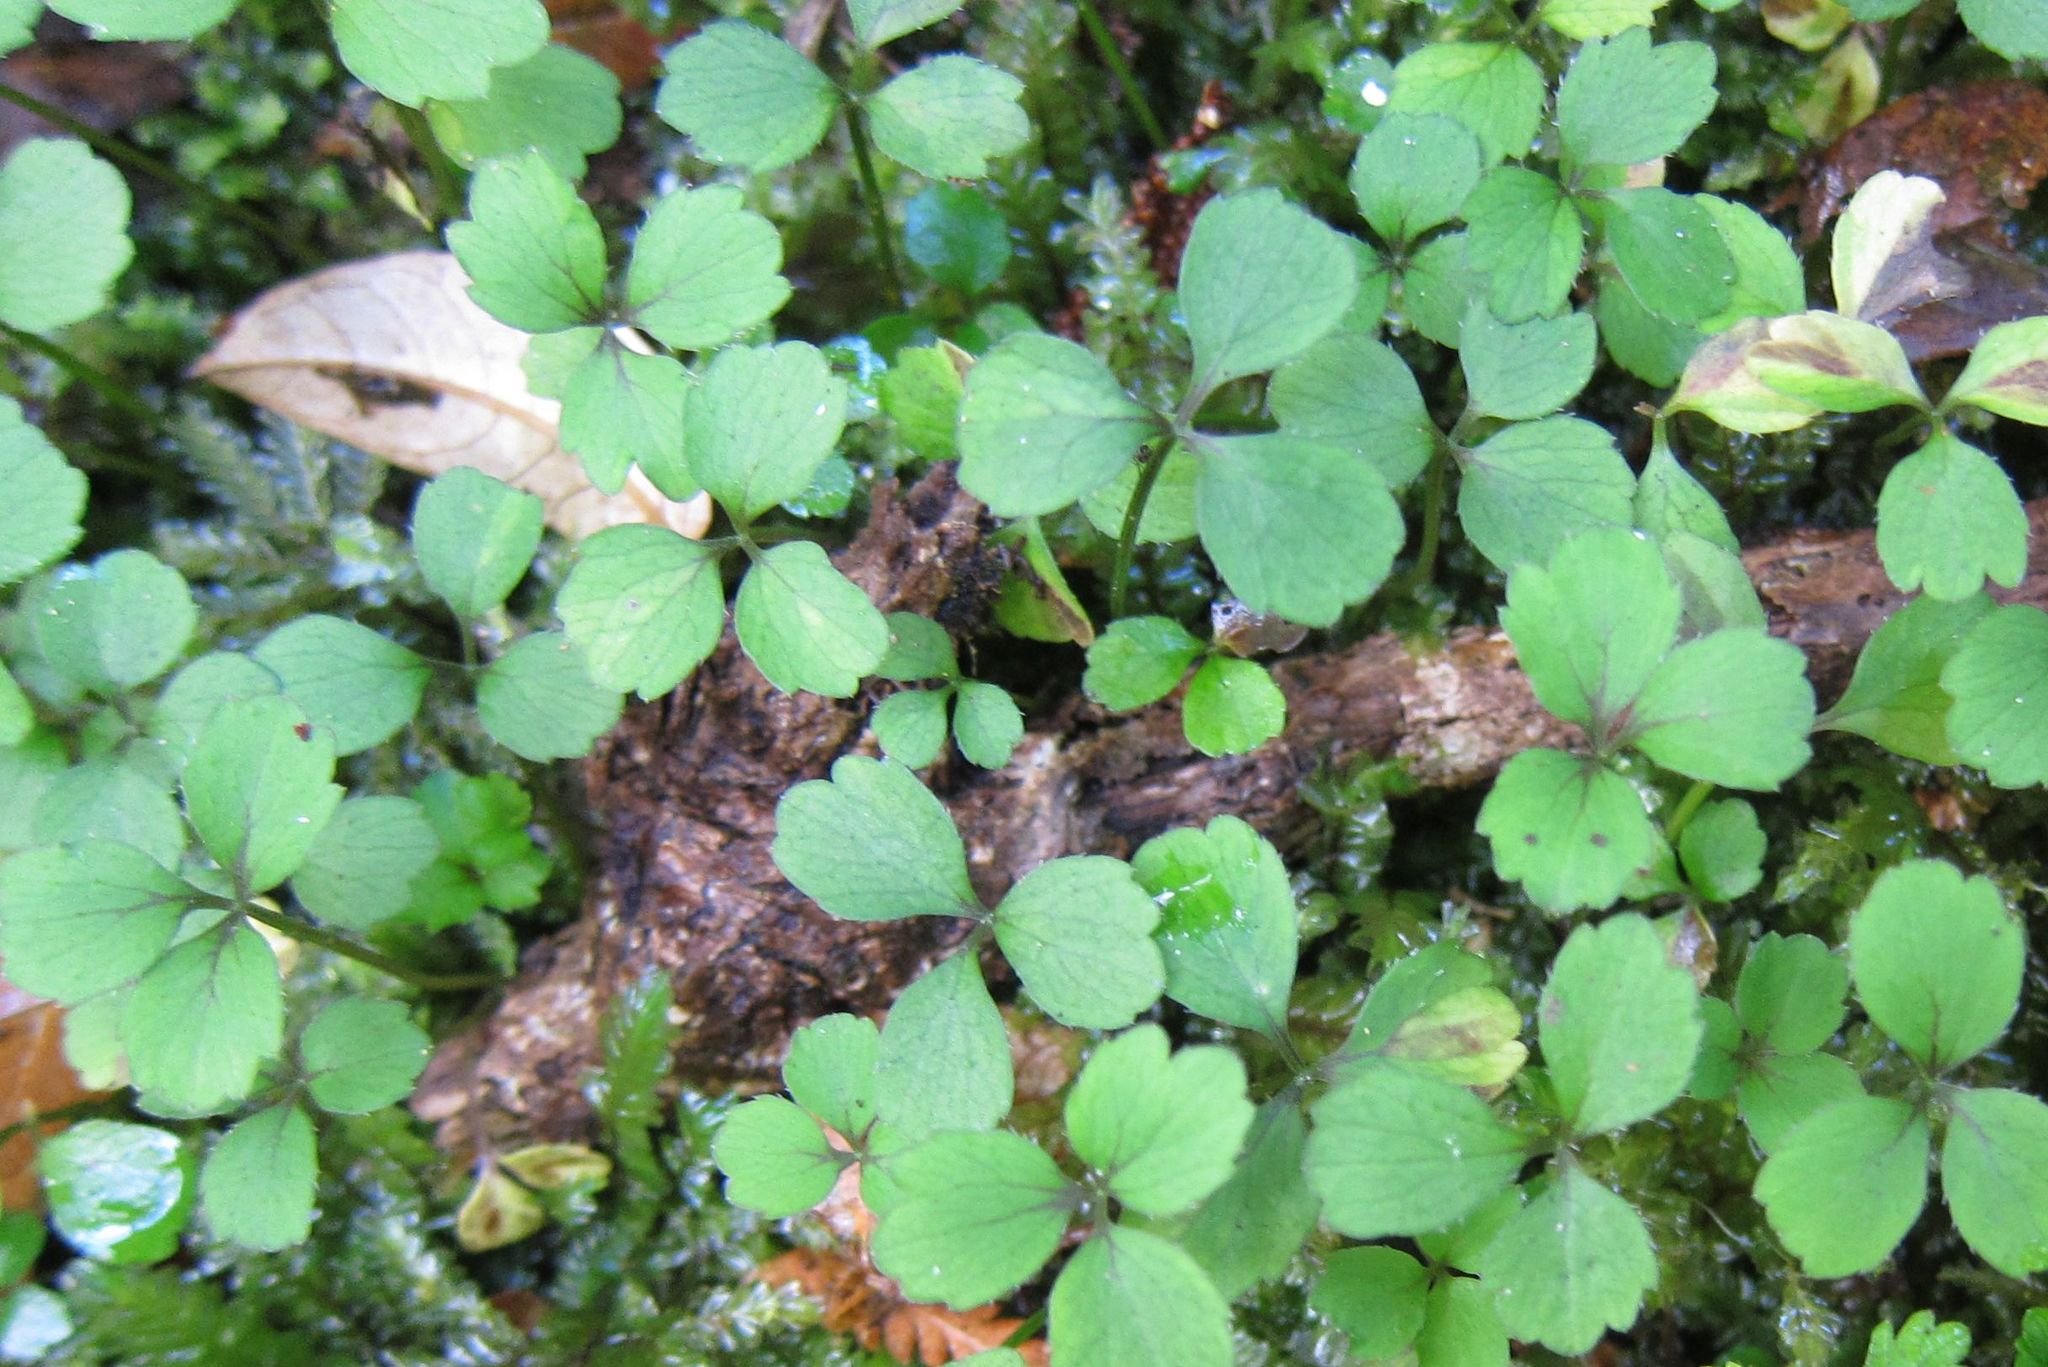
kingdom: Plantae
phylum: Tracheophyta
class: Magnoliopsida
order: Apiales
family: Apiaceae
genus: Azorella
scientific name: Azorella hookeri
